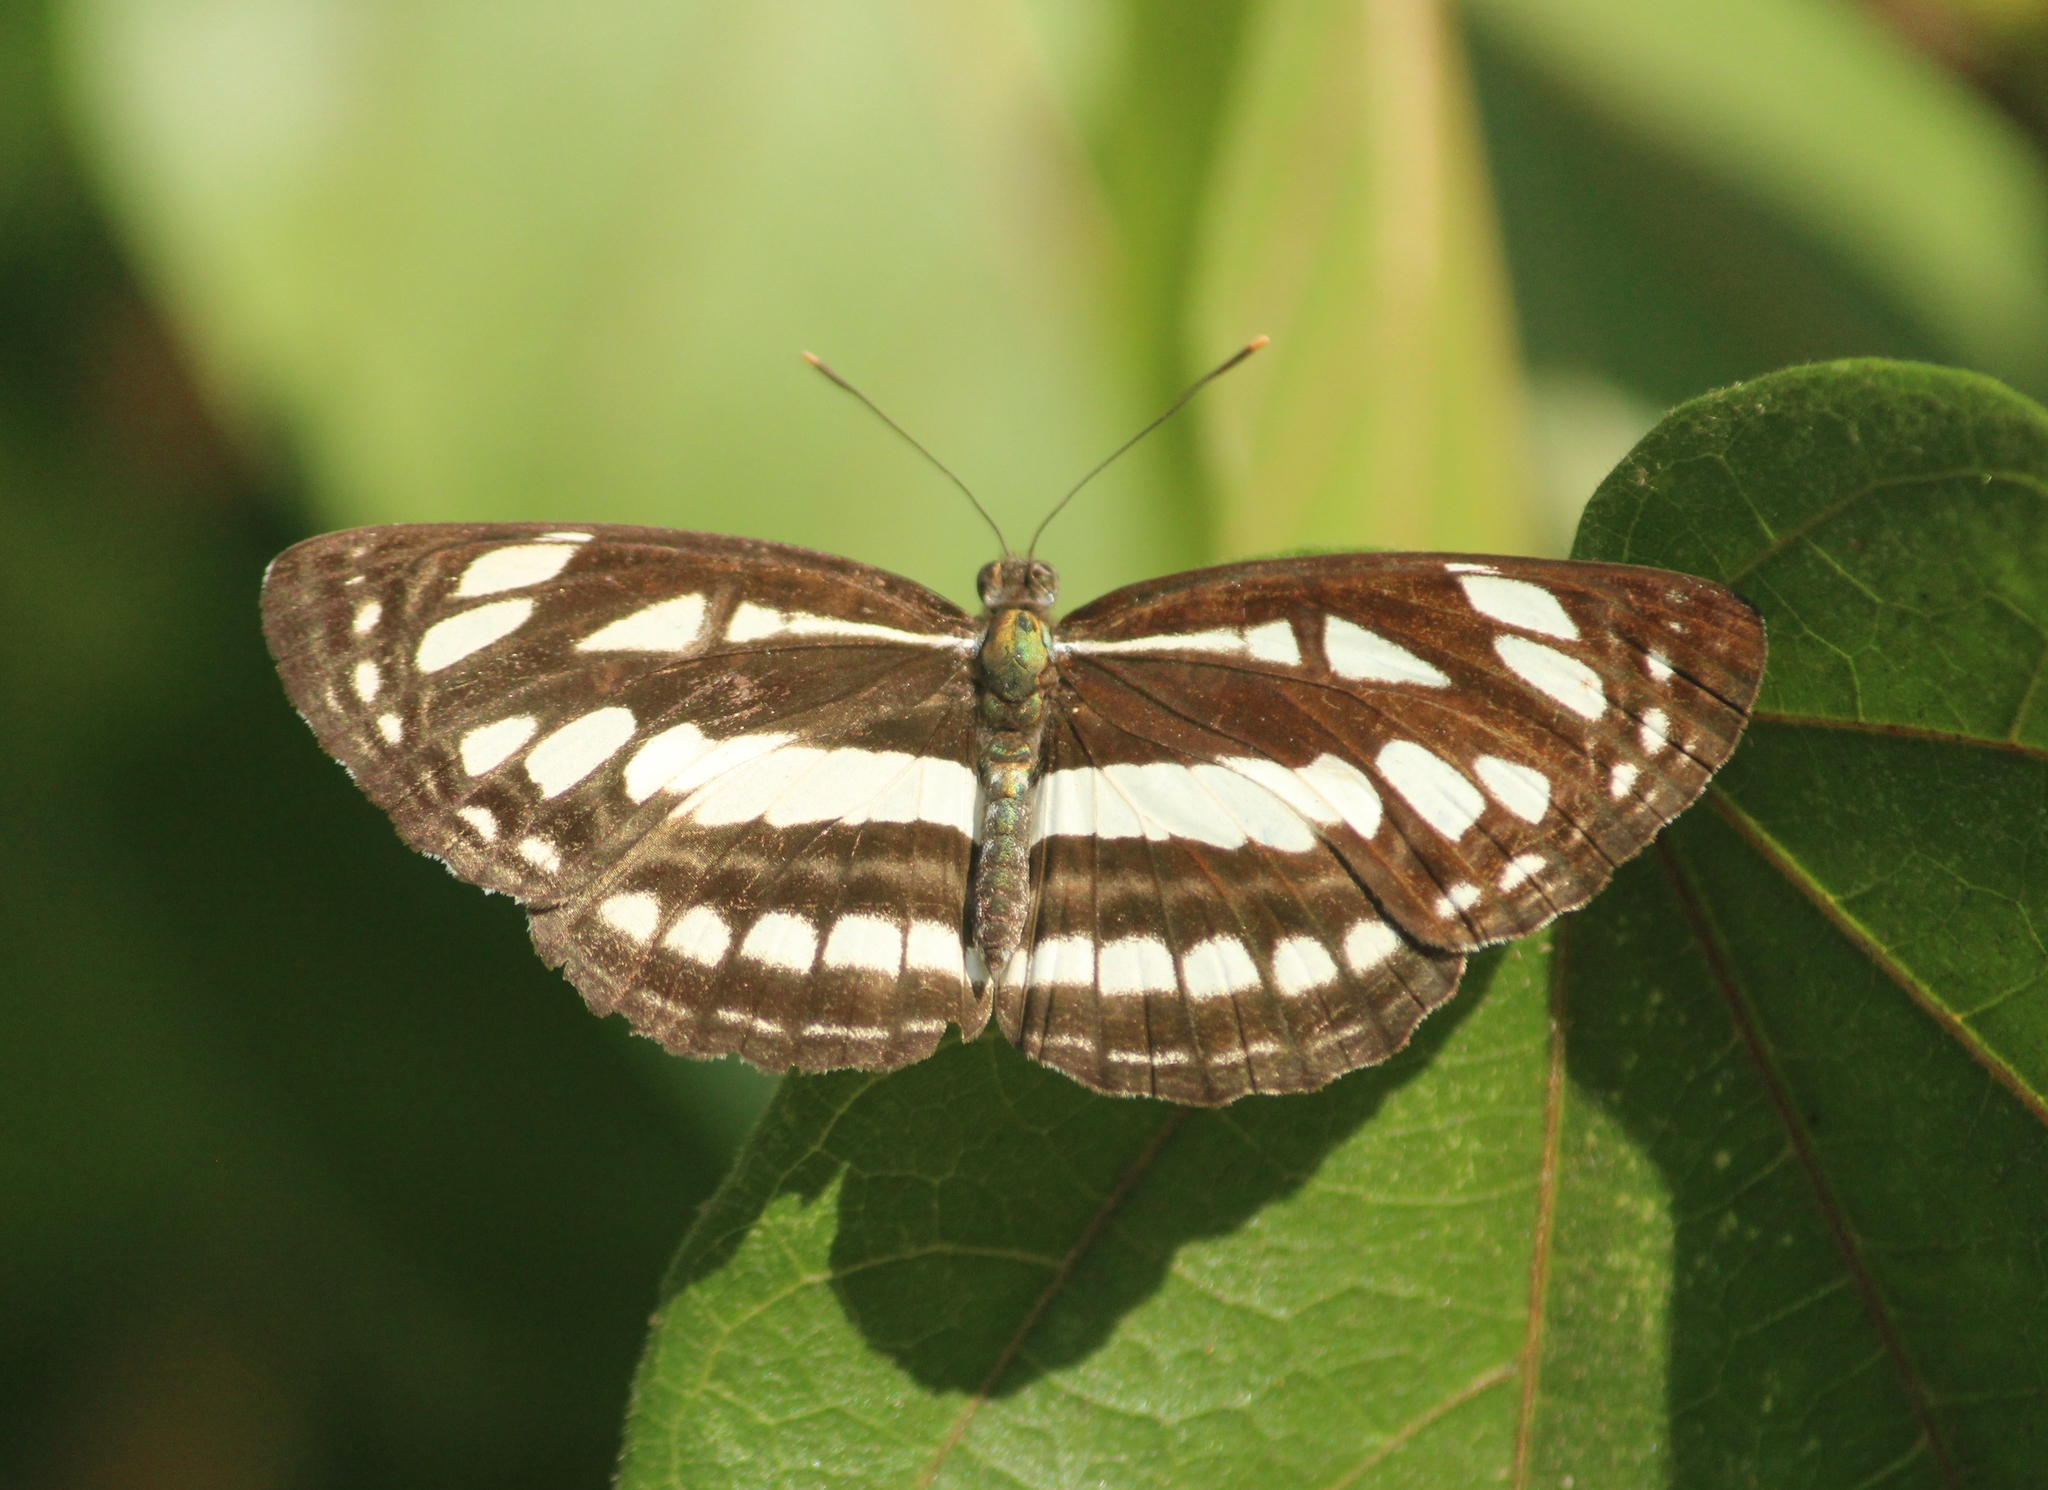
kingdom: Animalia
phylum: Arthropoda
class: Insecta
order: Lepidoptera
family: Nymphalidae
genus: Neptis
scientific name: Neptis hylas
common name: Common sailer
